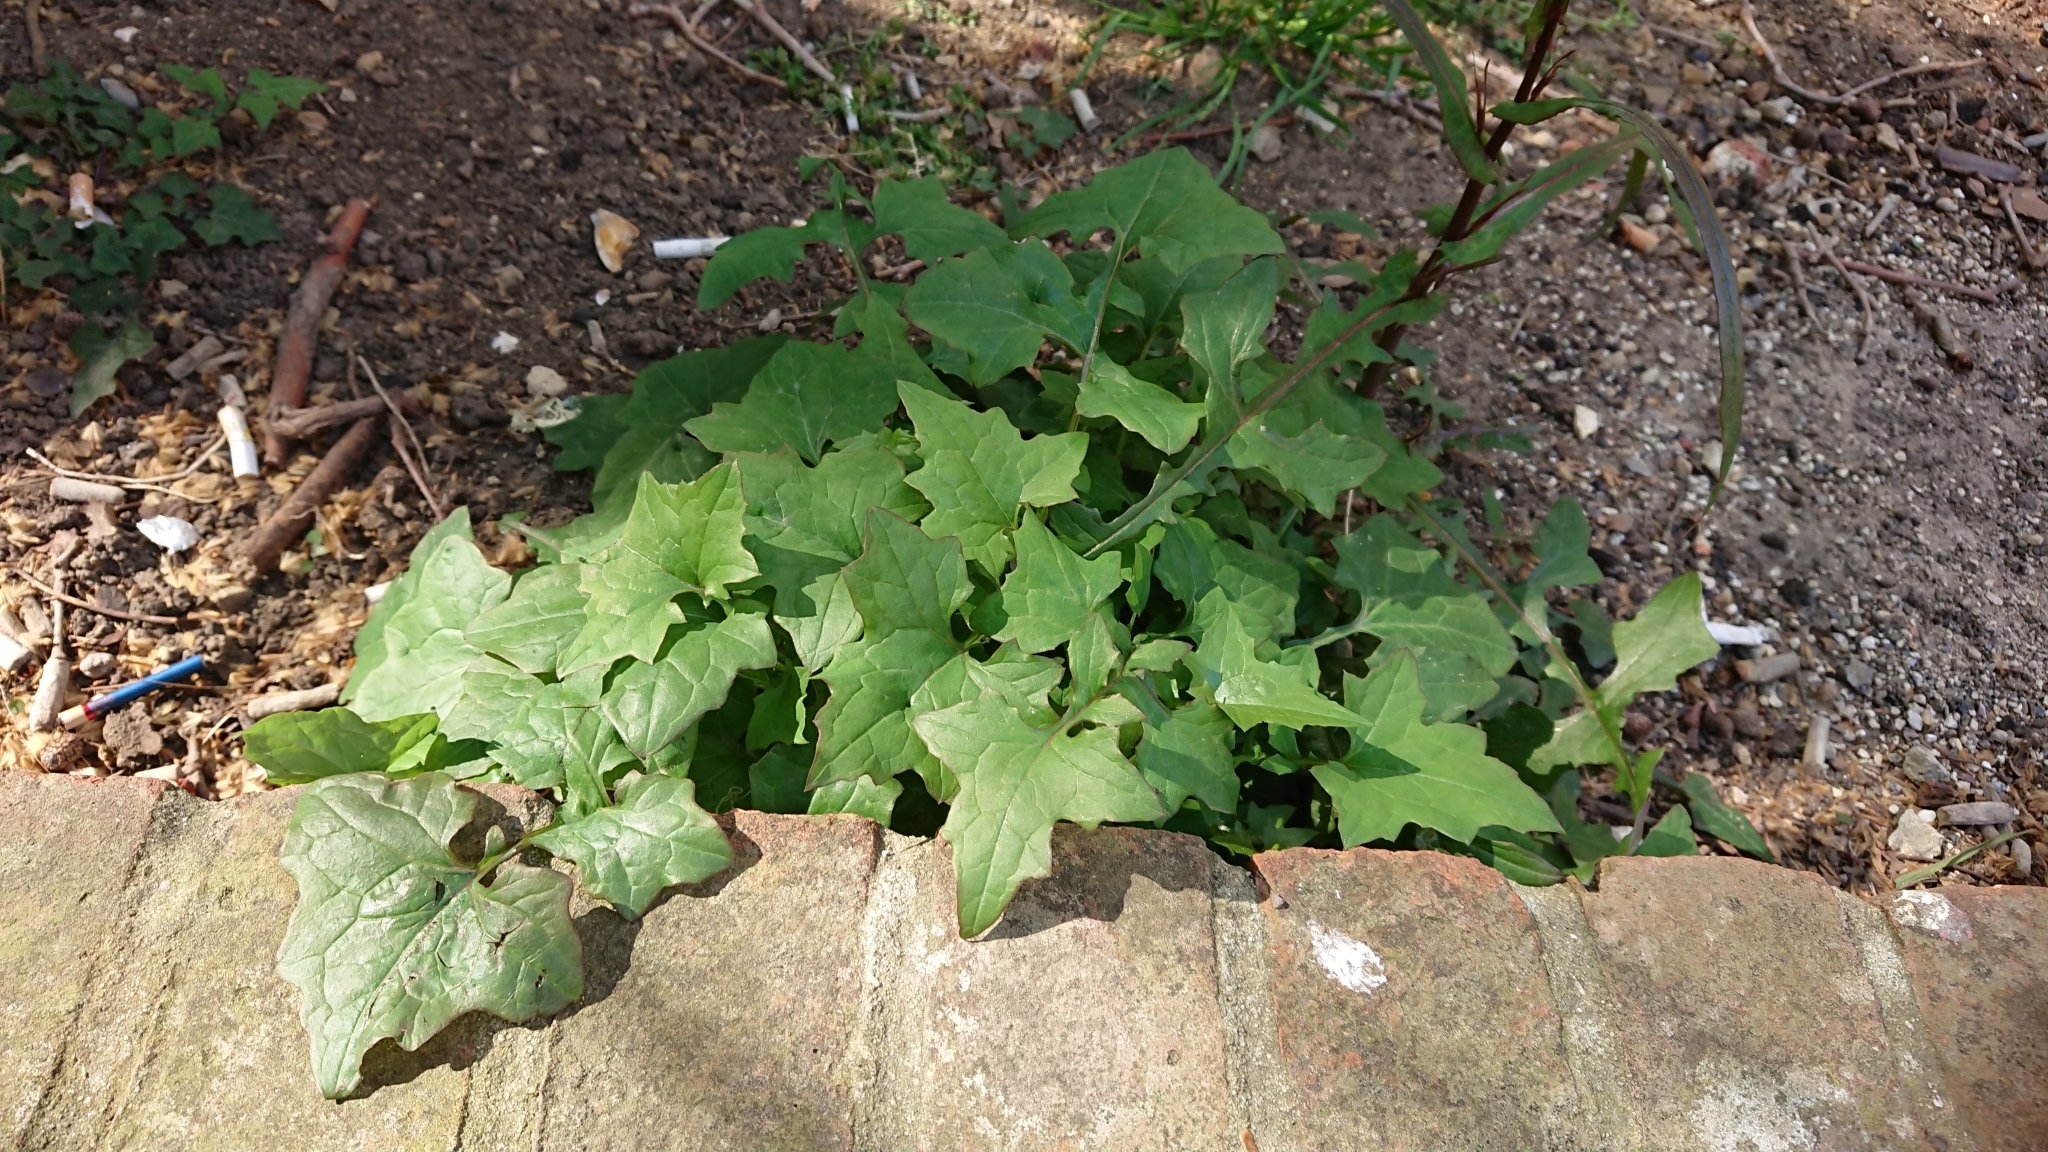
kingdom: Plantae
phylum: Tracheophyta
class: Magnoliopsida
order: Asterales
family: Asteraceae
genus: Mycelis
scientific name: Mycelis muralis
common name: Wall lettuce
